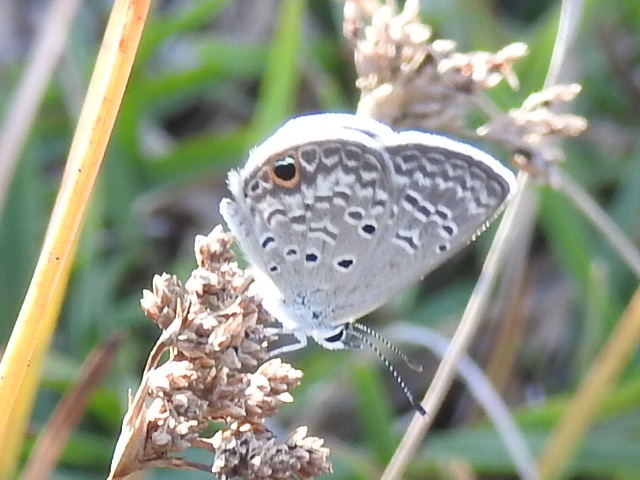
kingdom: Animalia
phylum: Arthropoda
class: Insecta
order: Lepidoptera
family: Lycaenidae
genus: Hemiargus
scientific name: Hemiargus ceraunus
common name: Ceraunus blue
